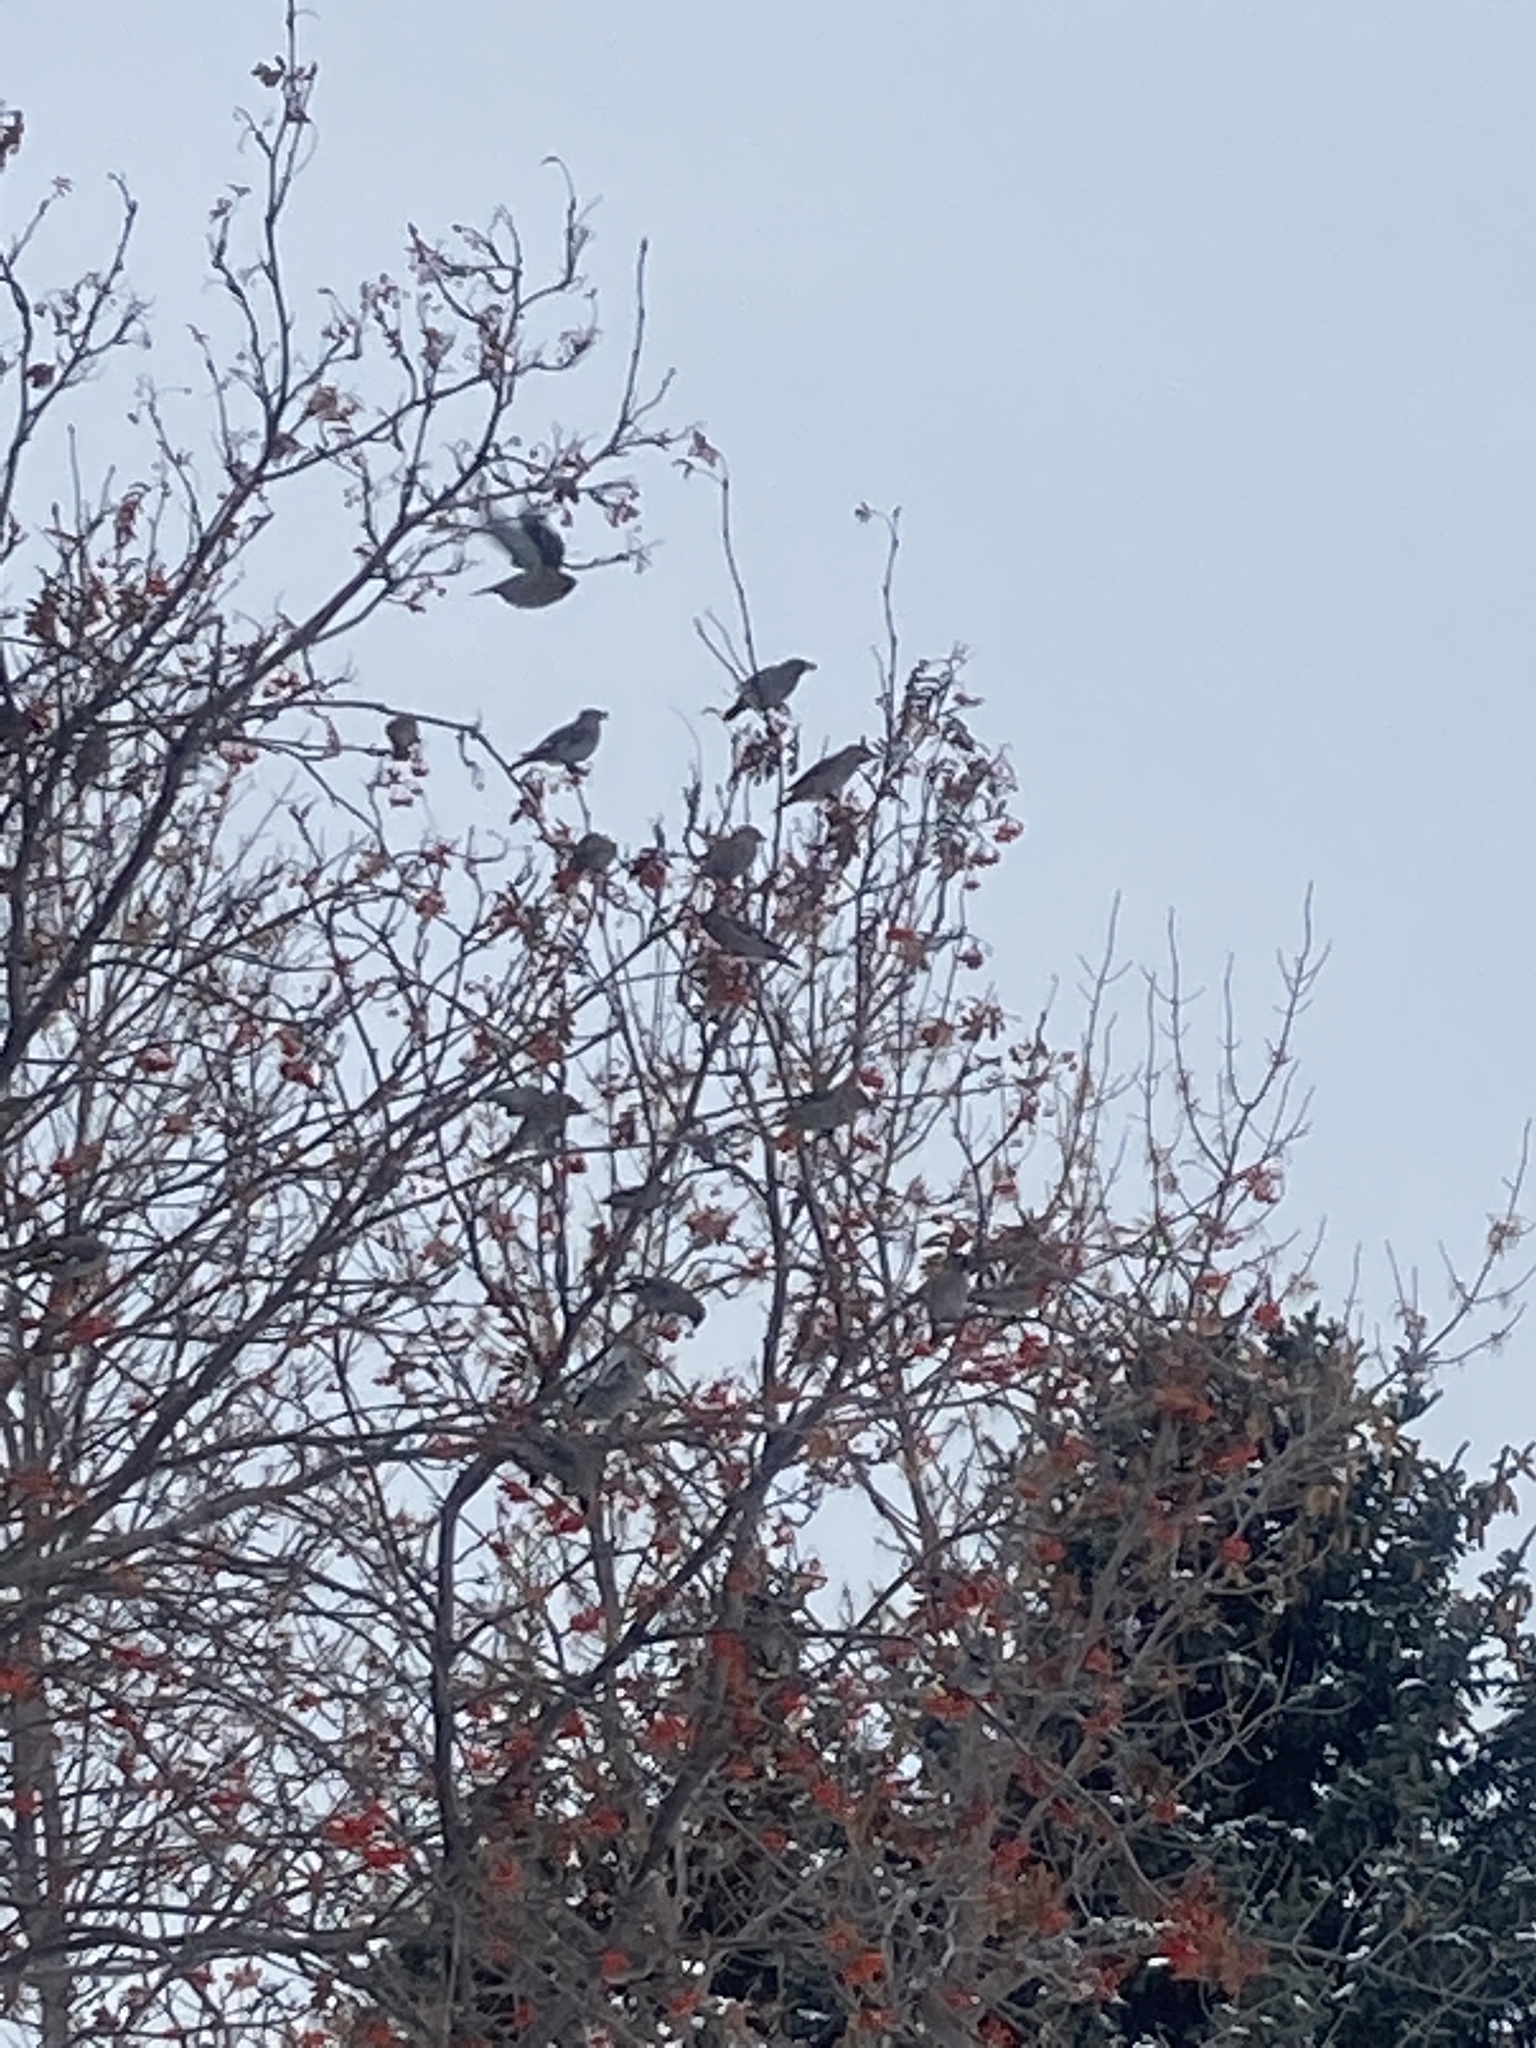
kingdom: Animalia
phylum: Chordata
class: Aves
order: Passeriformes
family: Bombycillidae
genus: Bombycilla
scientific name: Bombycilla garrulus
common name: Bohemian waxwing
